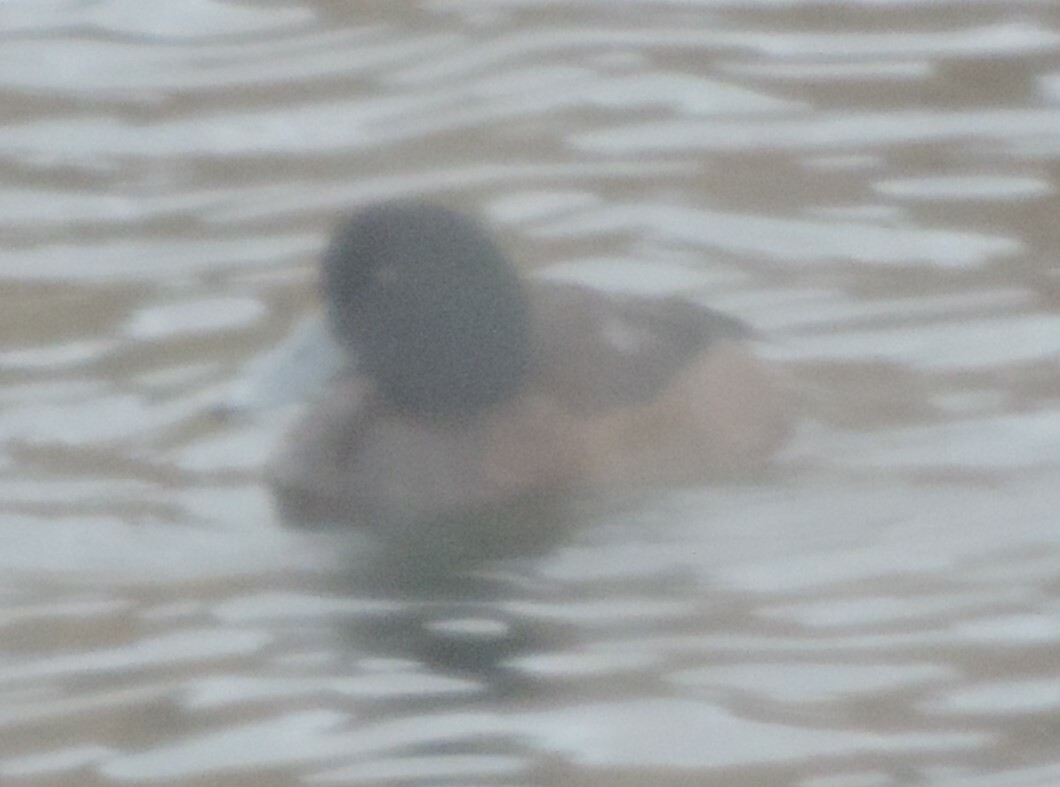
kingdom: Animalia
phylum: Chordata
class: Aves
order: Anseriformes
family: Anatidae
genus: Aythya
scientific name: Aythya marila
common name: Greater scaup
